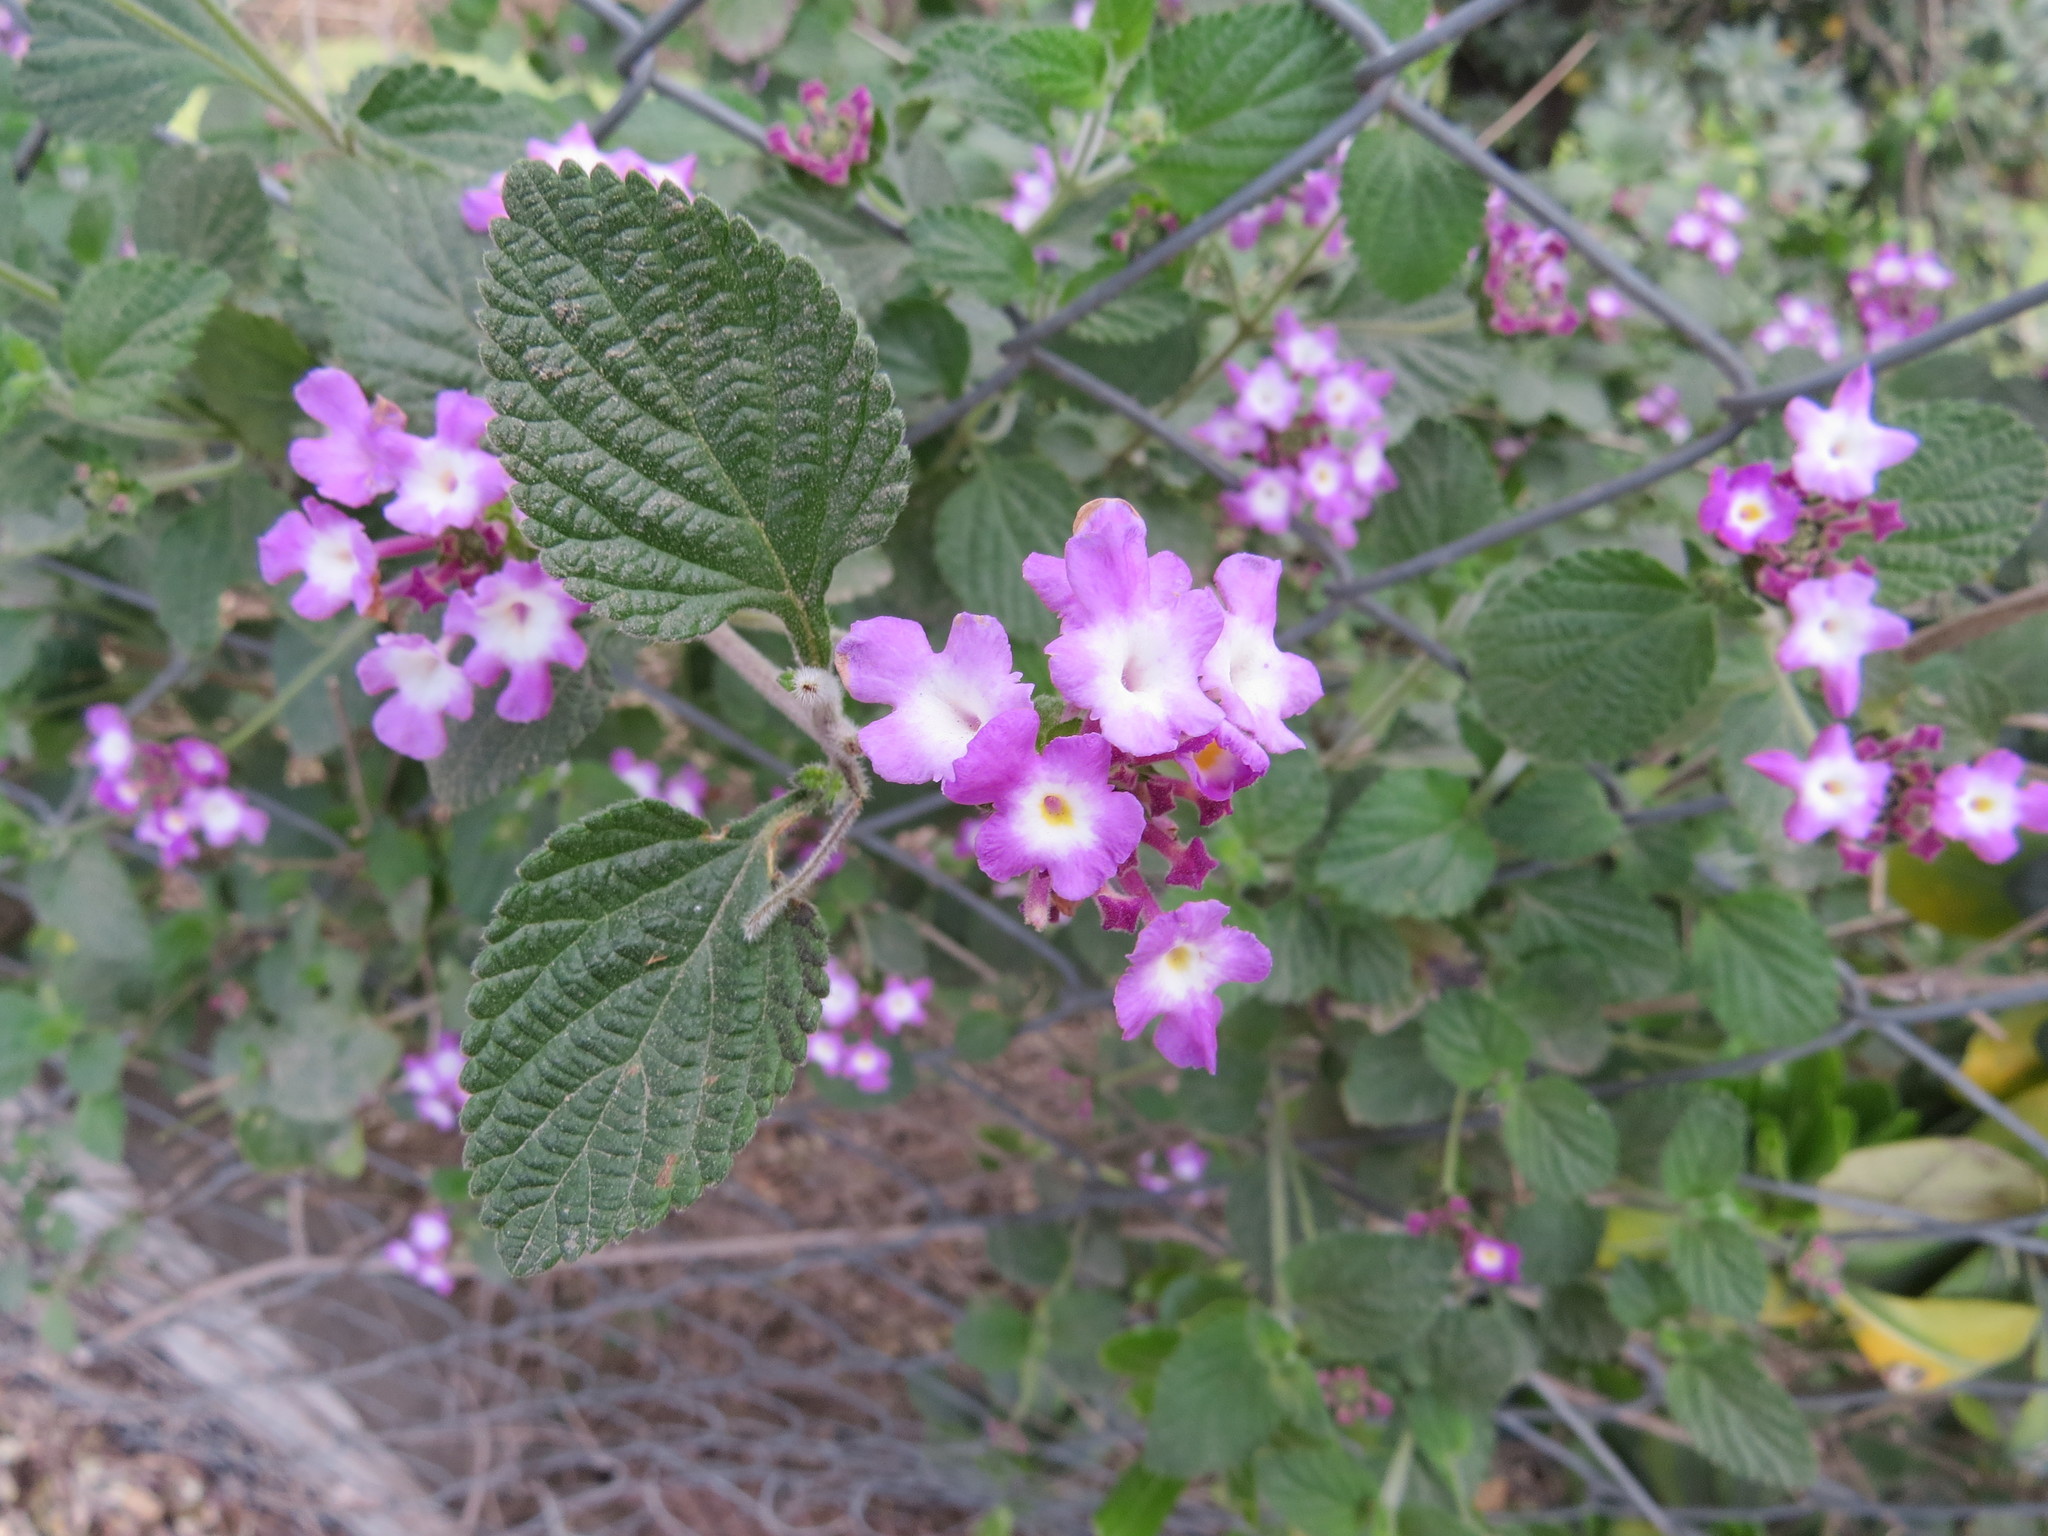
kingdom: Plantae
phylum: Tracheophyta
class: Magnoliopsida
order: Lamiales
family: Verbenaceae
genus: Lantana
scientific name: Lantana megapotamica
